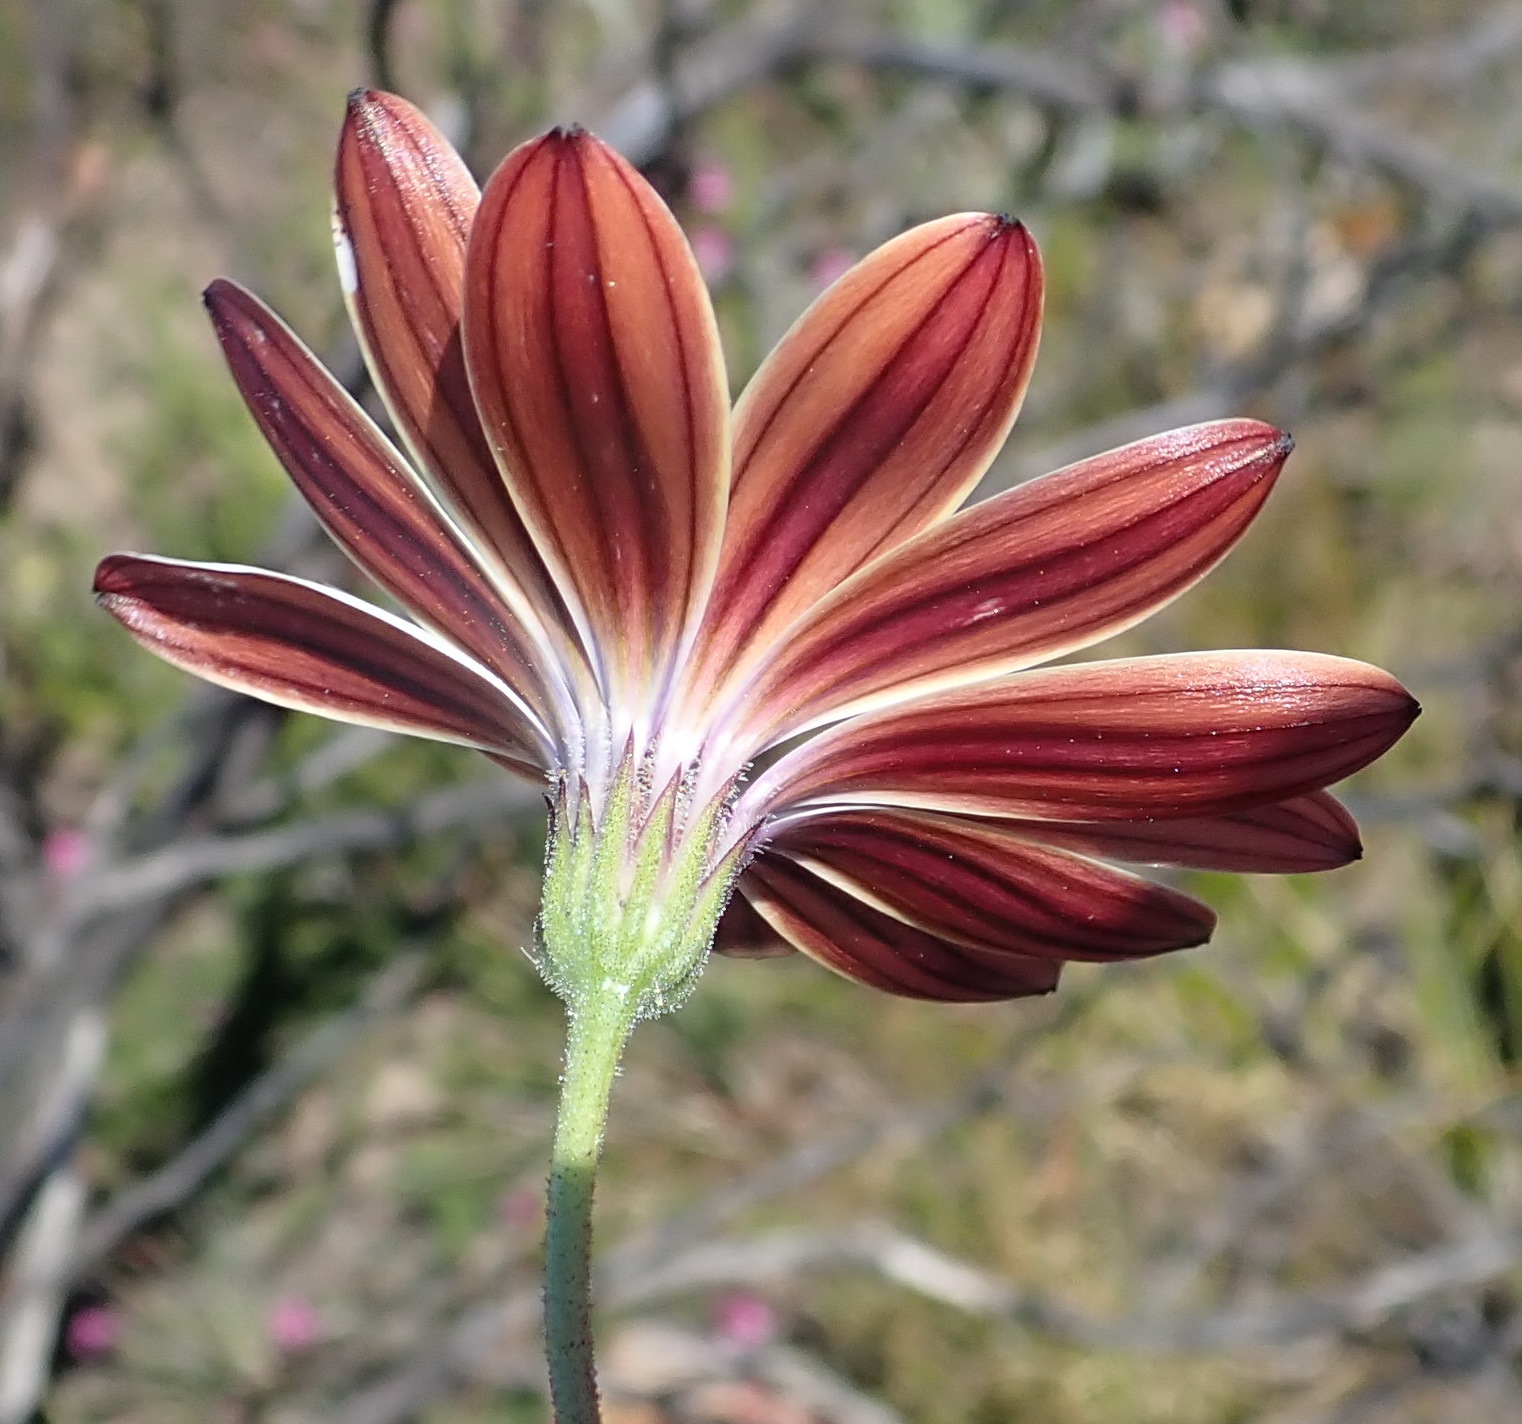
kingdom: Plantae
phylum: Tracheophyta
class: Magnoliopsida
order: Asterales
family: Asteraceae
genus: Dimorphotheca
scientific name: Dimorphotheca montana
